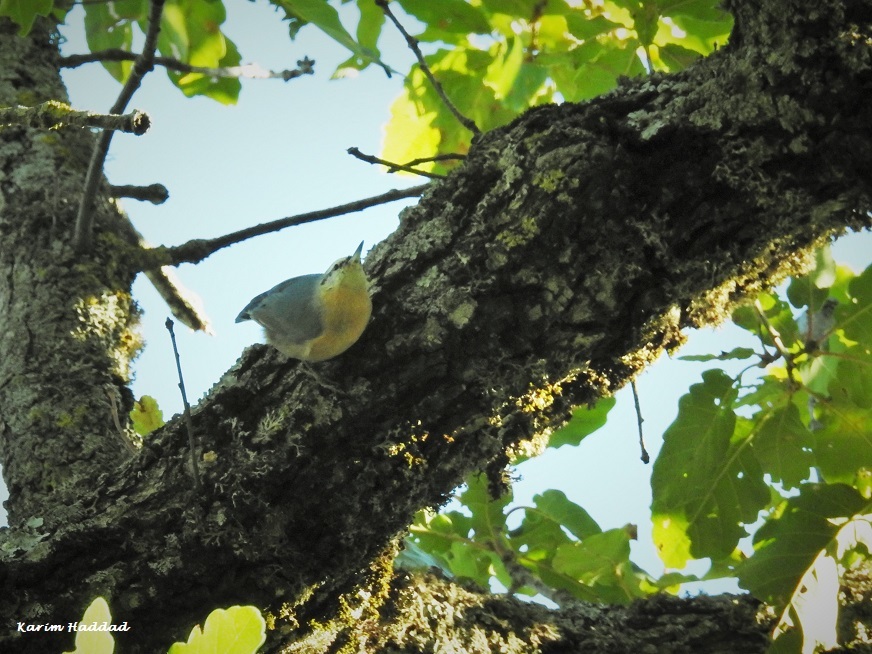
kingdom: Animalia
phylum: Chordata
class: Aves
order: Passeriformes
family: Sittidae
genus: Sitta
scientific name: Sitta ledanti
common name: Algerian nuthatch
